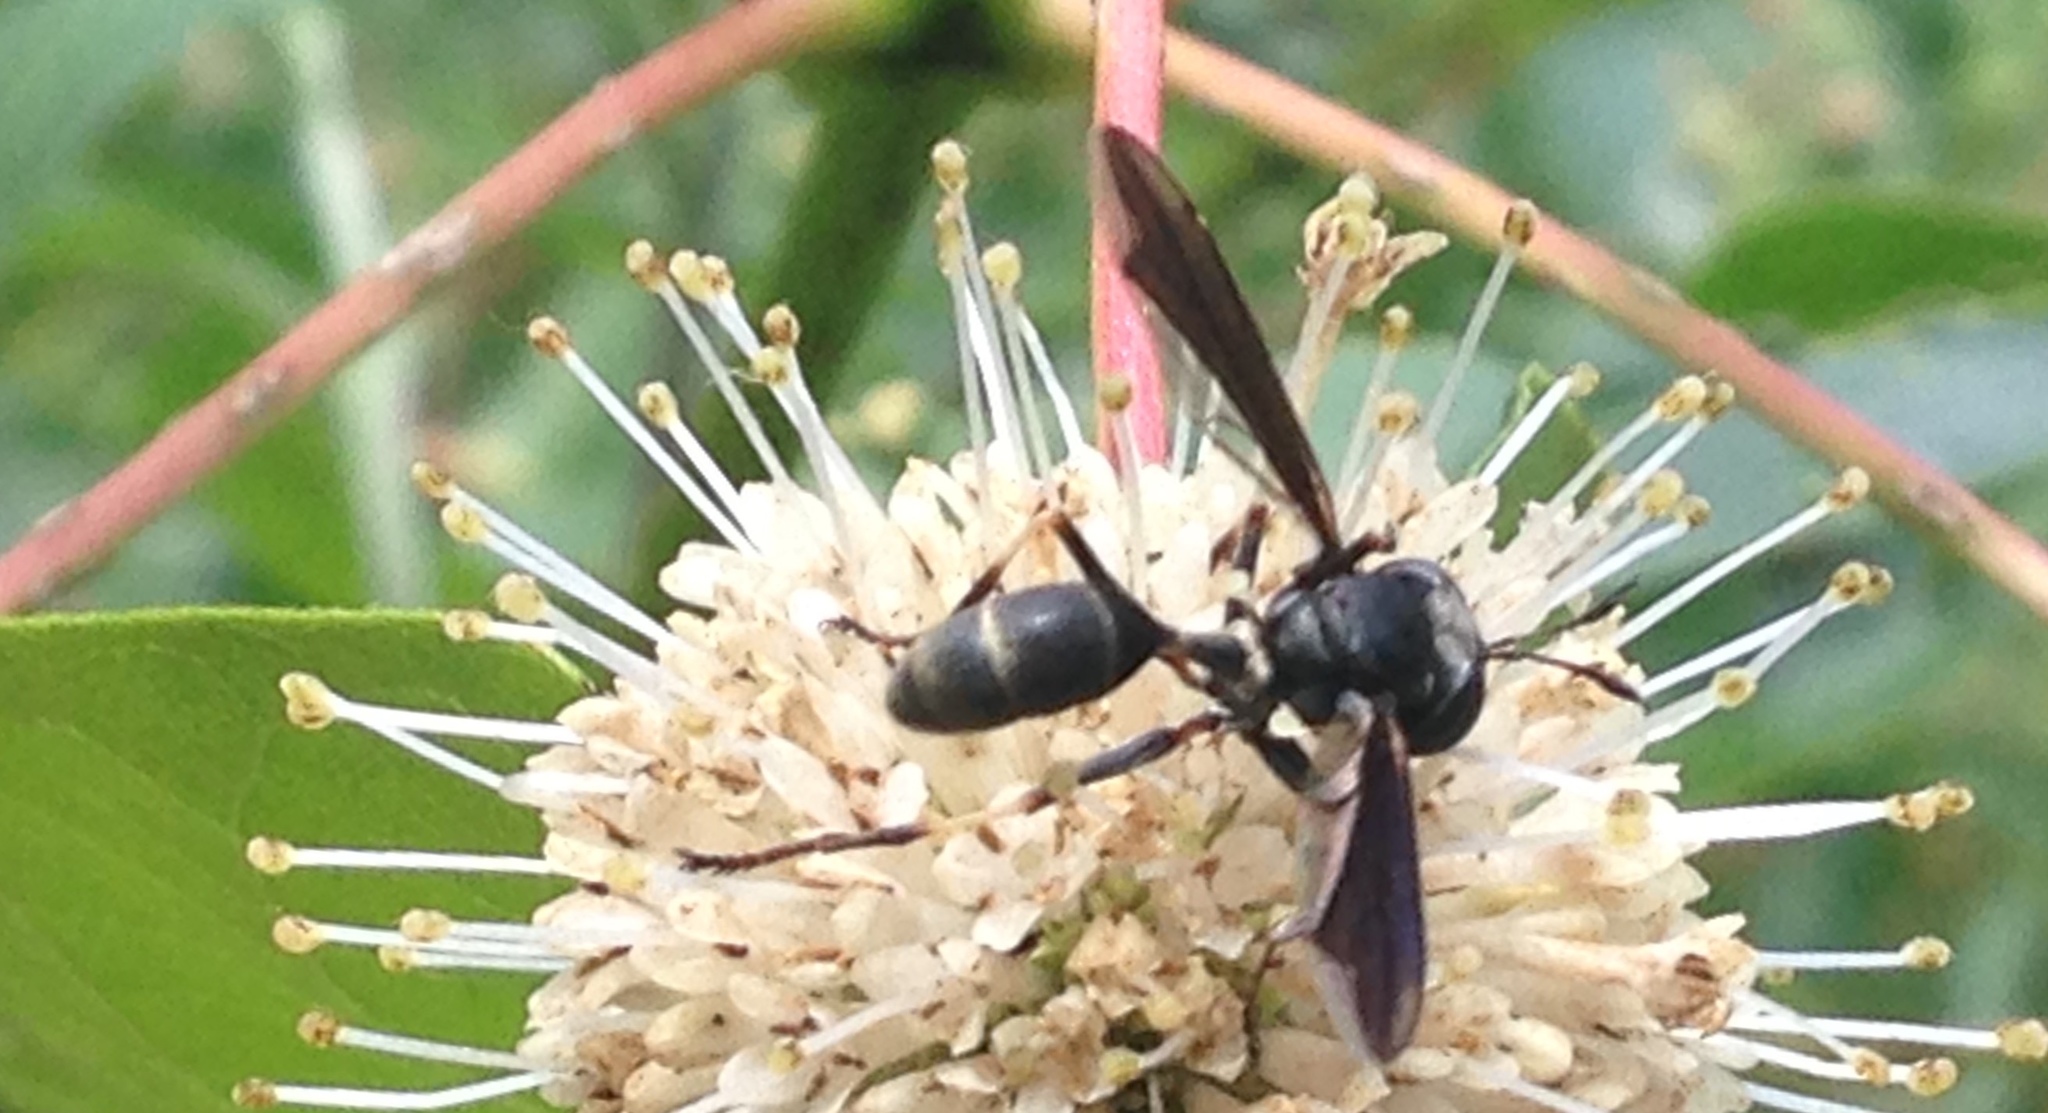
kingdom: Animalia
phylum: Arthropoda
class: Insecta
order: Diptera
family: Conopidae
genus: Physocephala
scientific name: Physocephala tibialis
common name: Common eastern physocephala
